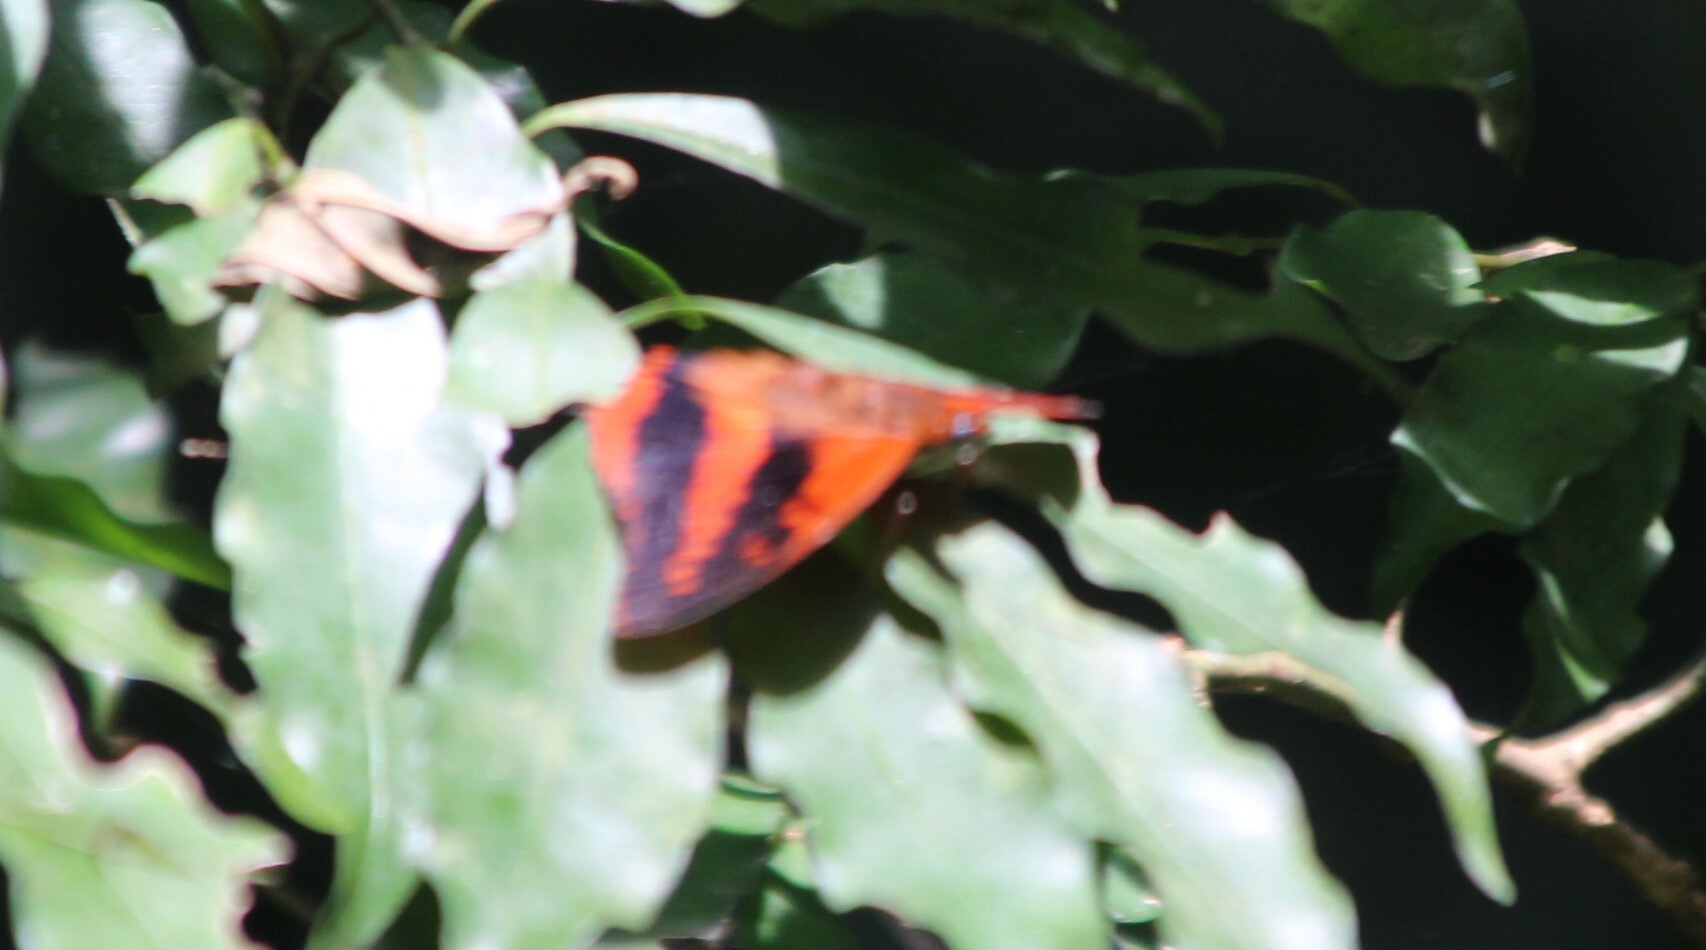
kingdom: Animalia
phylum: Arthropoda
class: Insecta
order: Lepidoptera
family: Nymphalidae
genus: Charaxes
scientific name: Charaxes cynthia
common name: Western red charaxes
